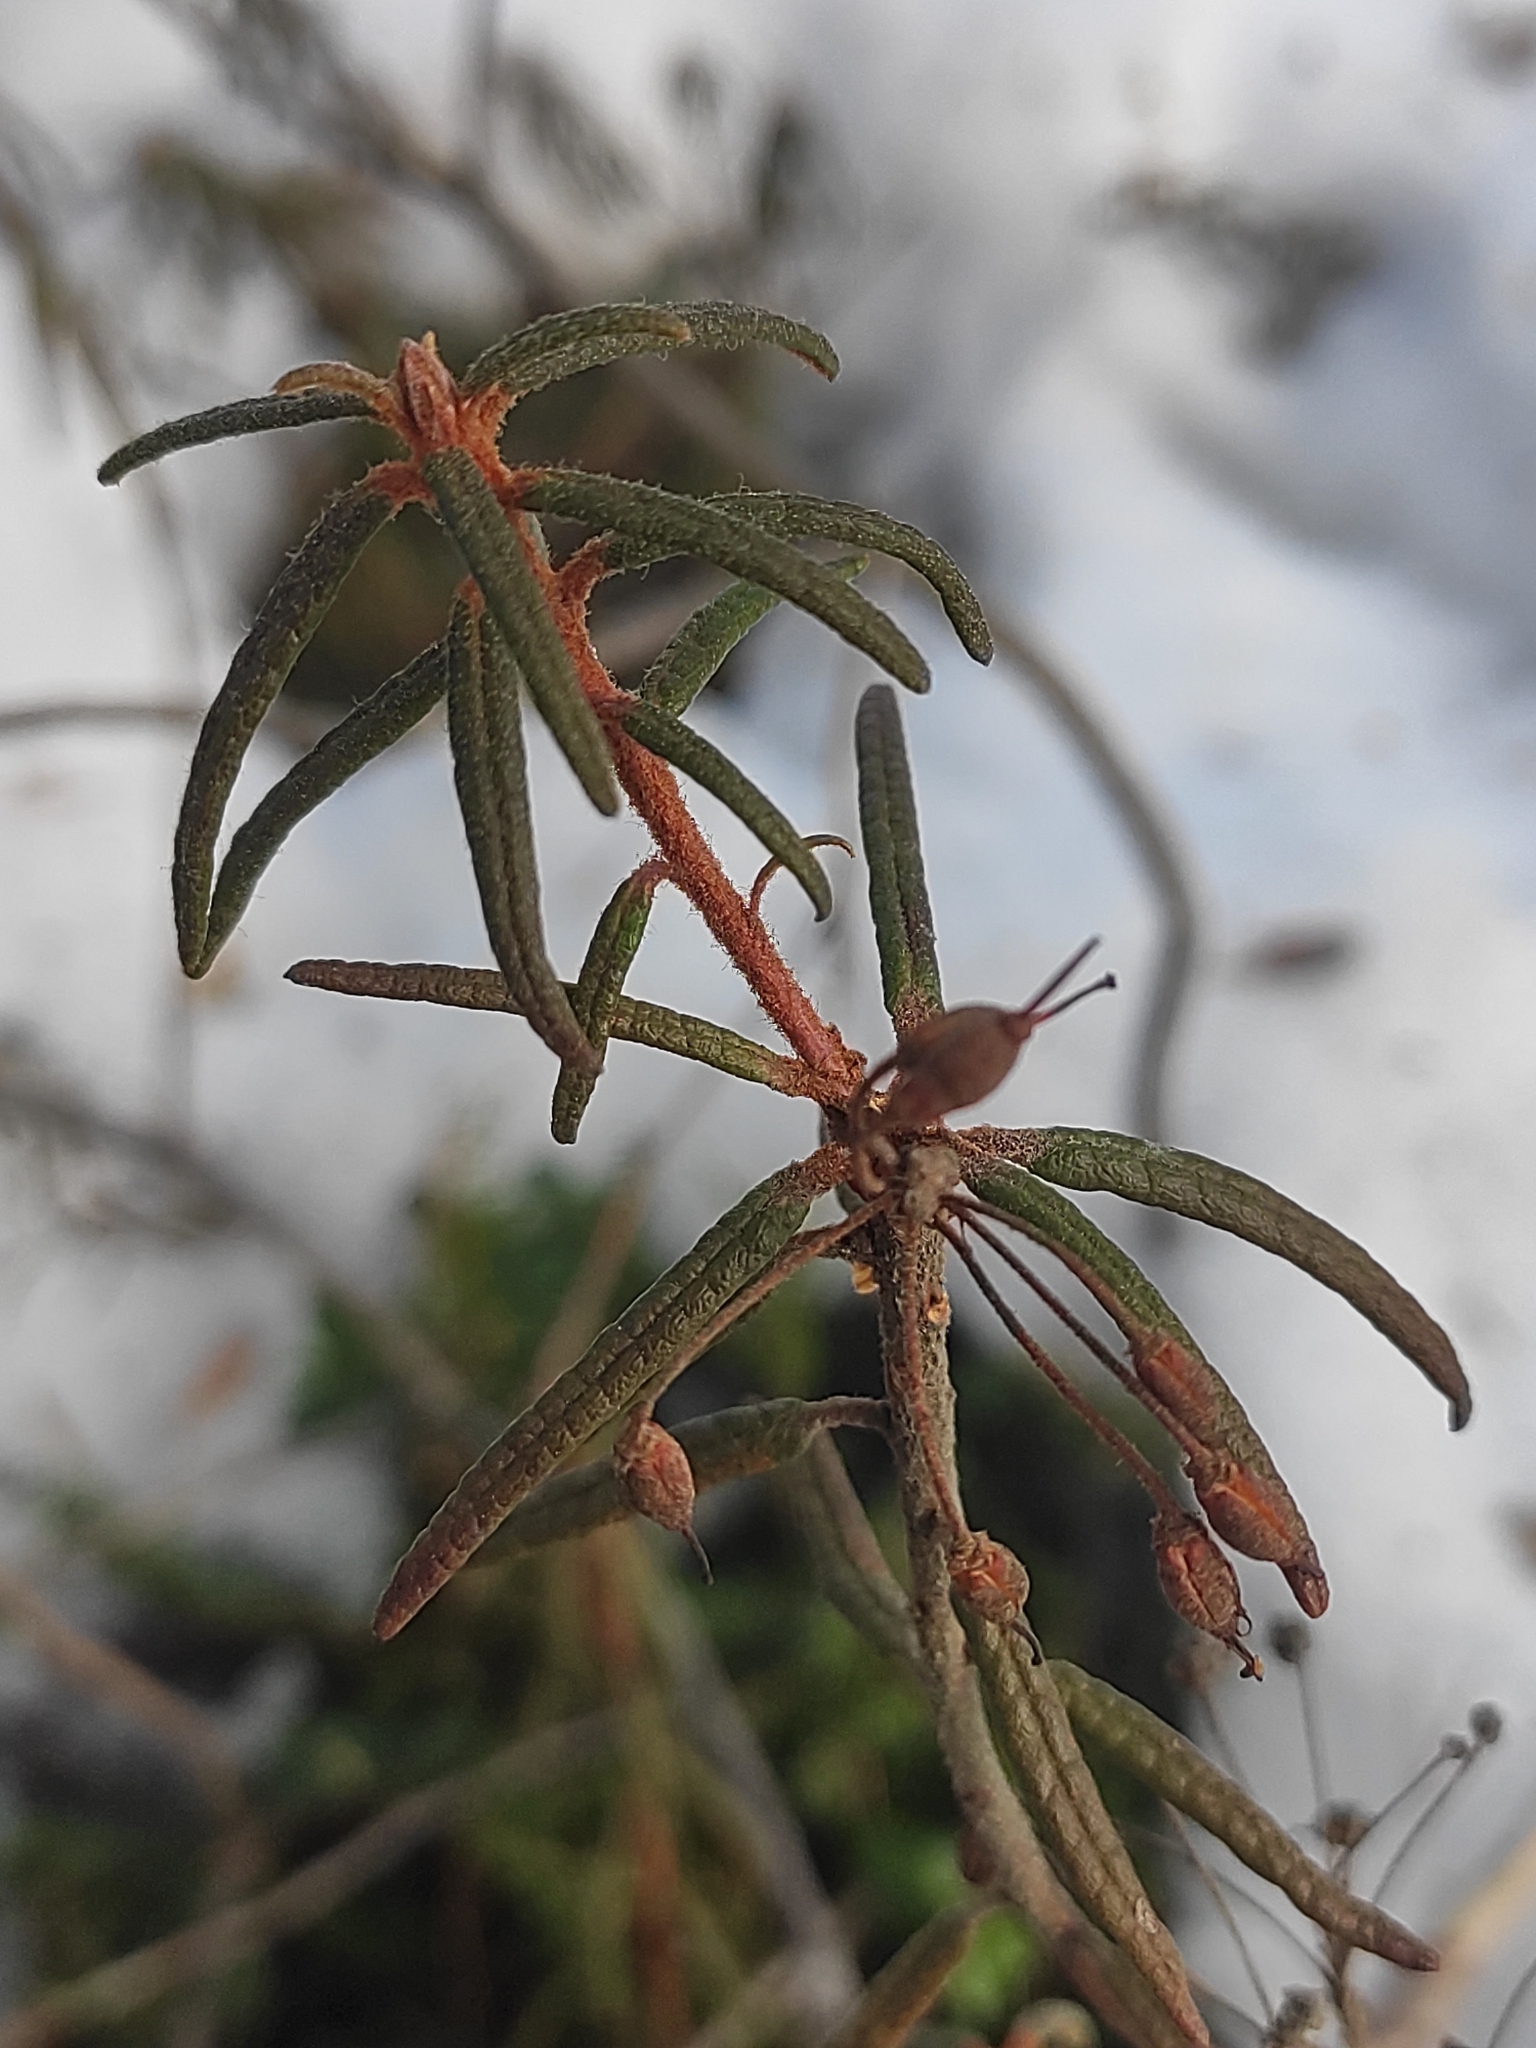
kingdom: Plantae
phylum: Tracheophyta
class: Magnoliopsida
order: Ericales
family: Ericaceae
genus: Rhododendron
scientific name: Rhododendron tomentosum
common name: Marsh labrador tea
